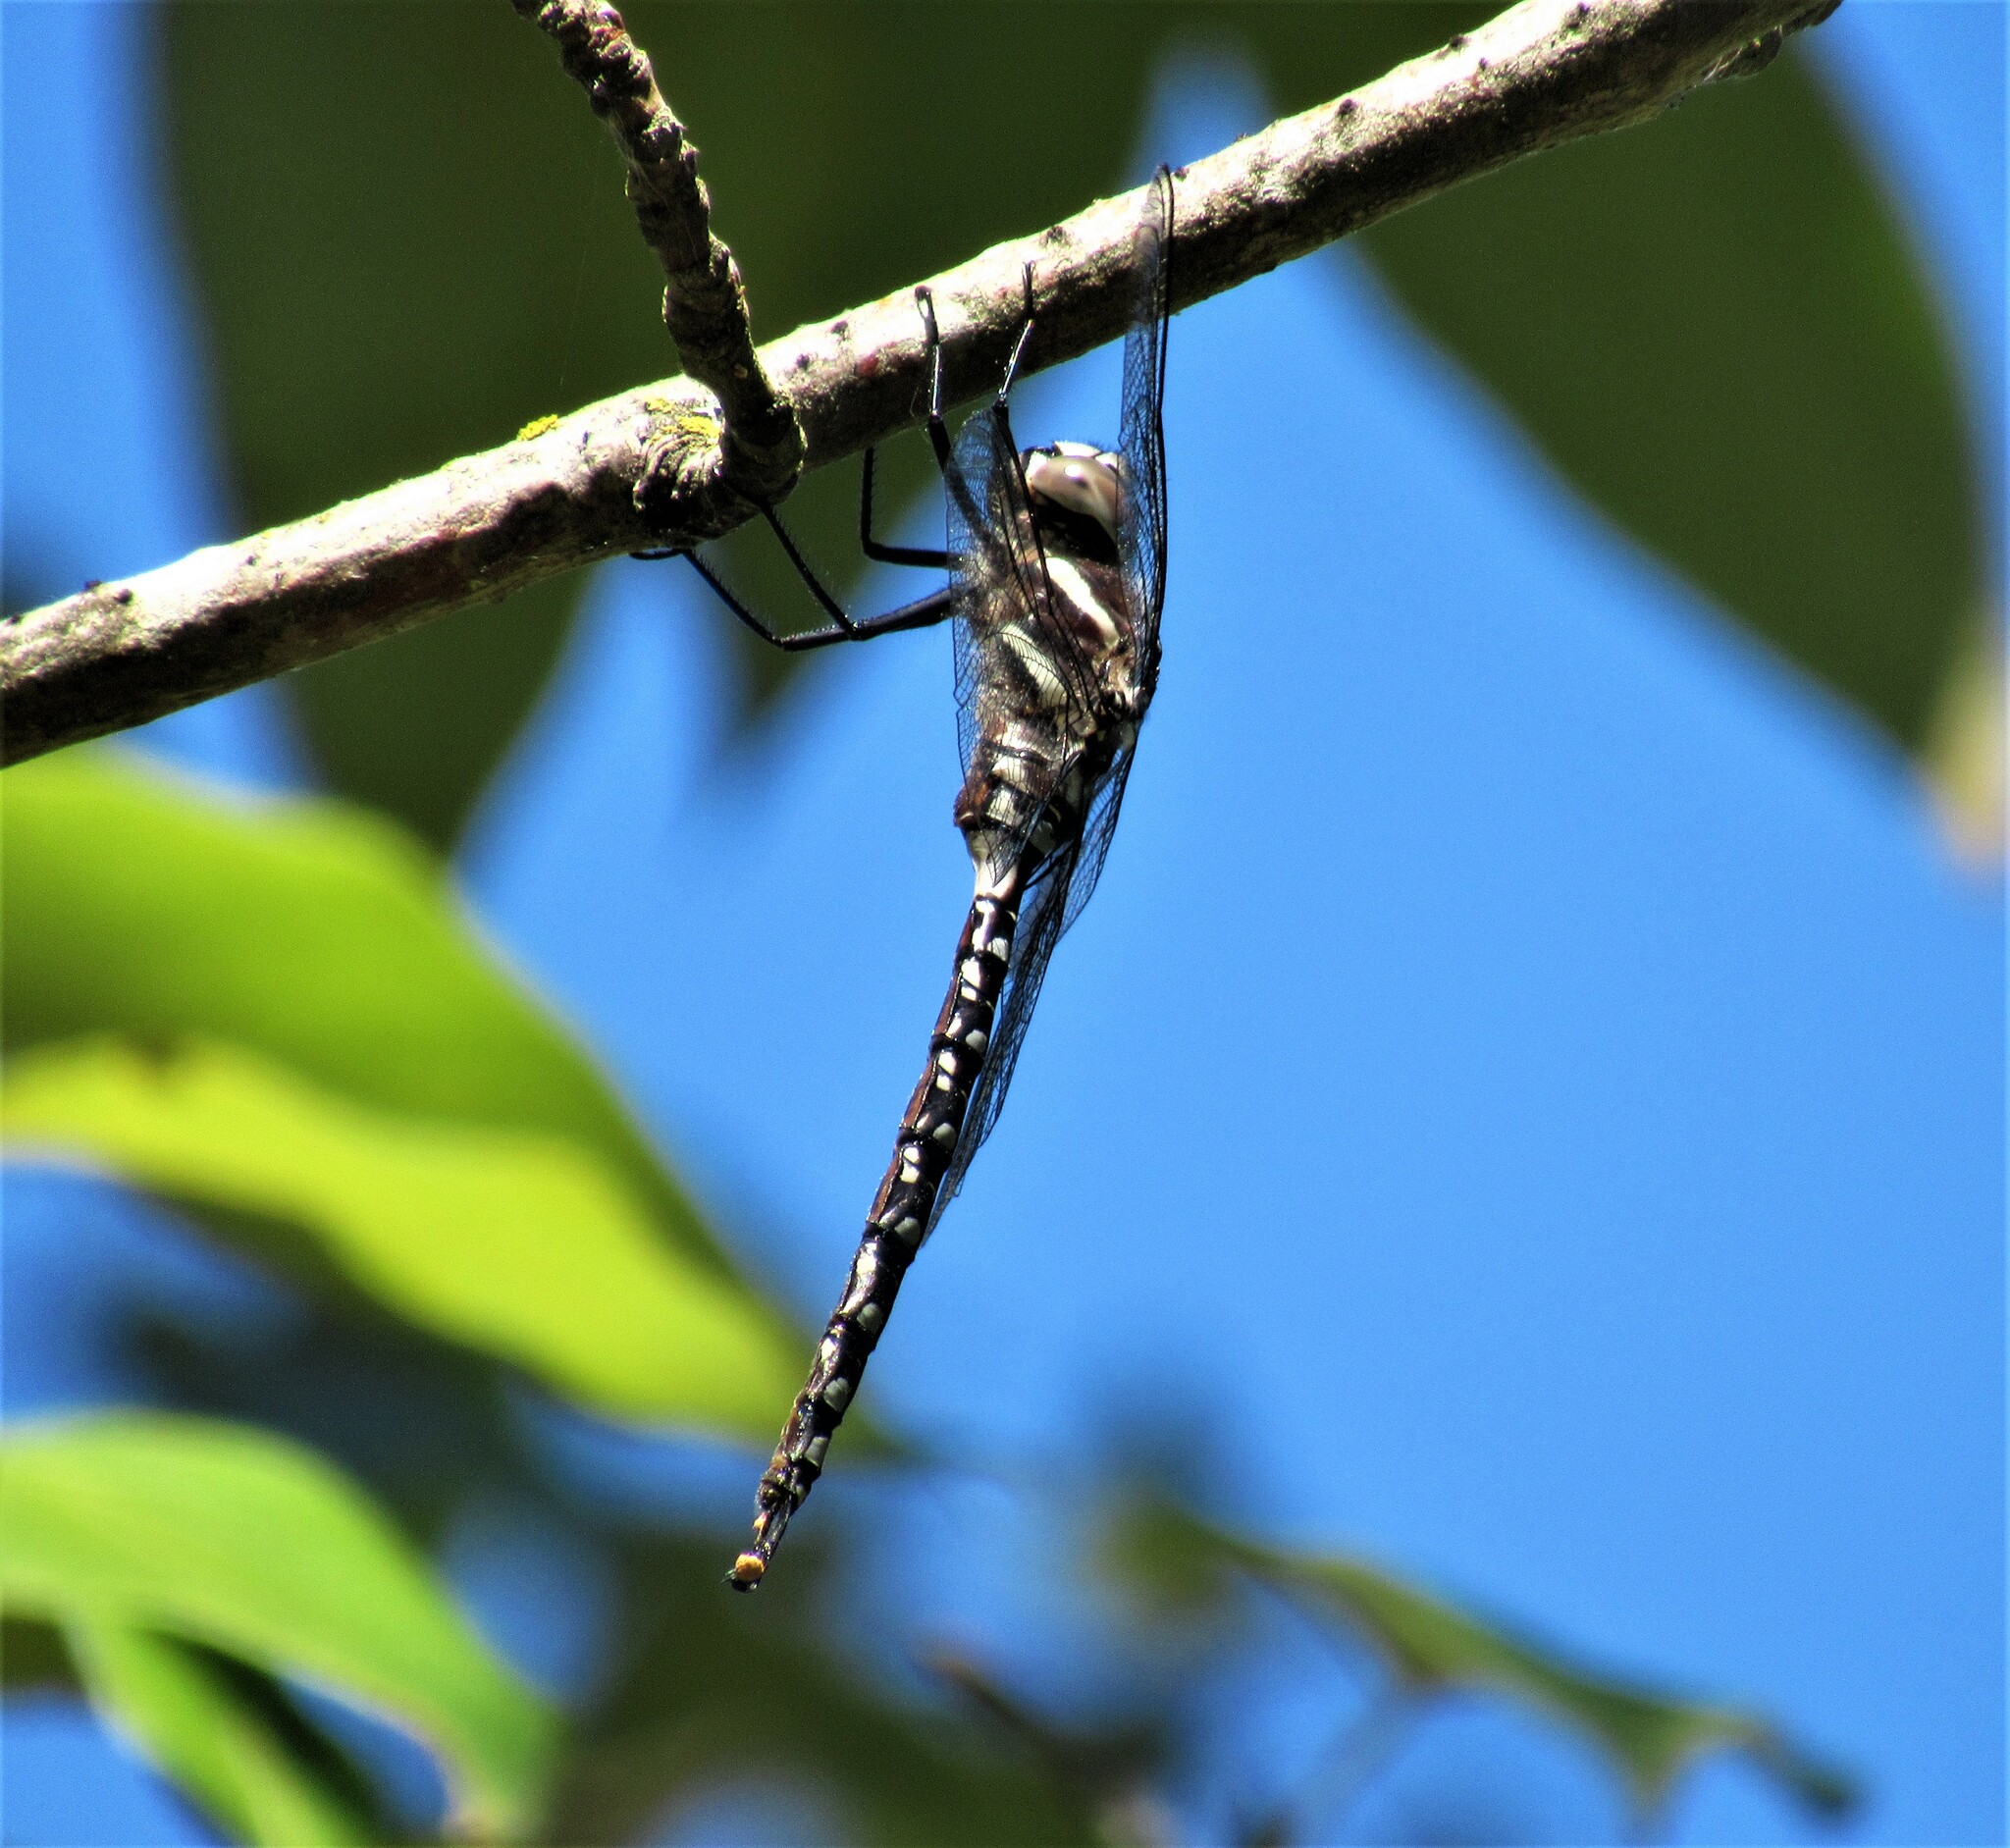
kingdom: Animalia
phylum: Arthropoda
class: Insecta
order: Odonata
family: Aeshnidae
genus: Aeshna
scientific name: Aeshna palmata
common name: Paddle-tailed darner
